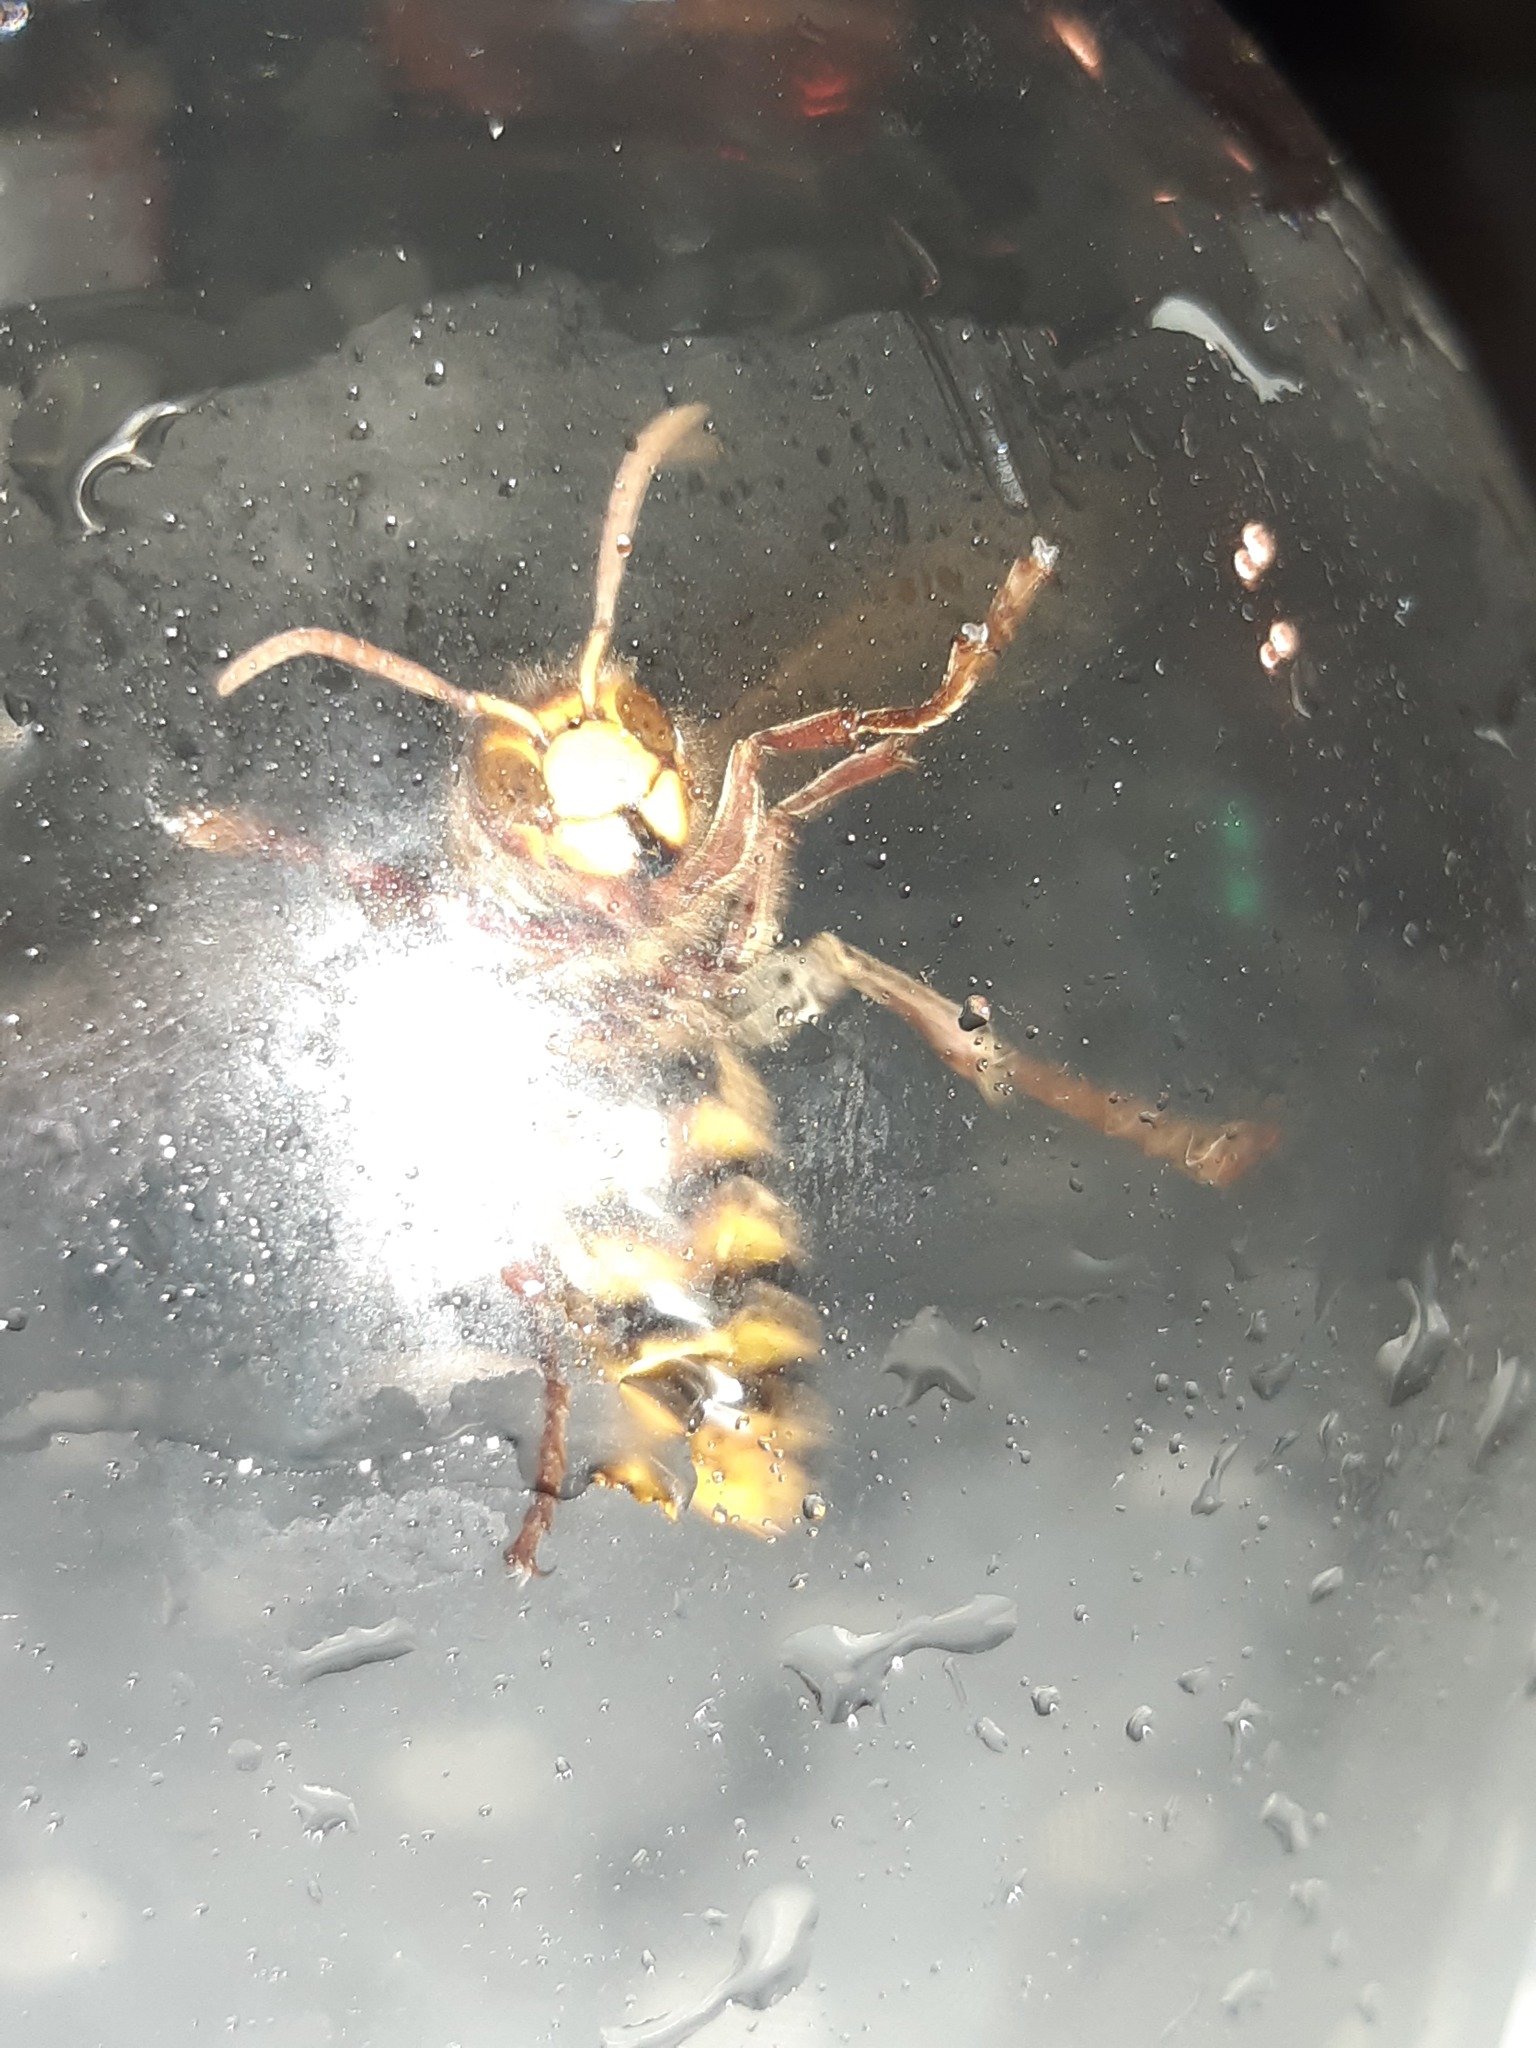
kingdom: Animalia
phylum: Arthropoda
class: Insecta
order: Hymenoptera
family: Vespidae
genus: Vespa
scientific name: Vespa crabro
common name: Hornet
